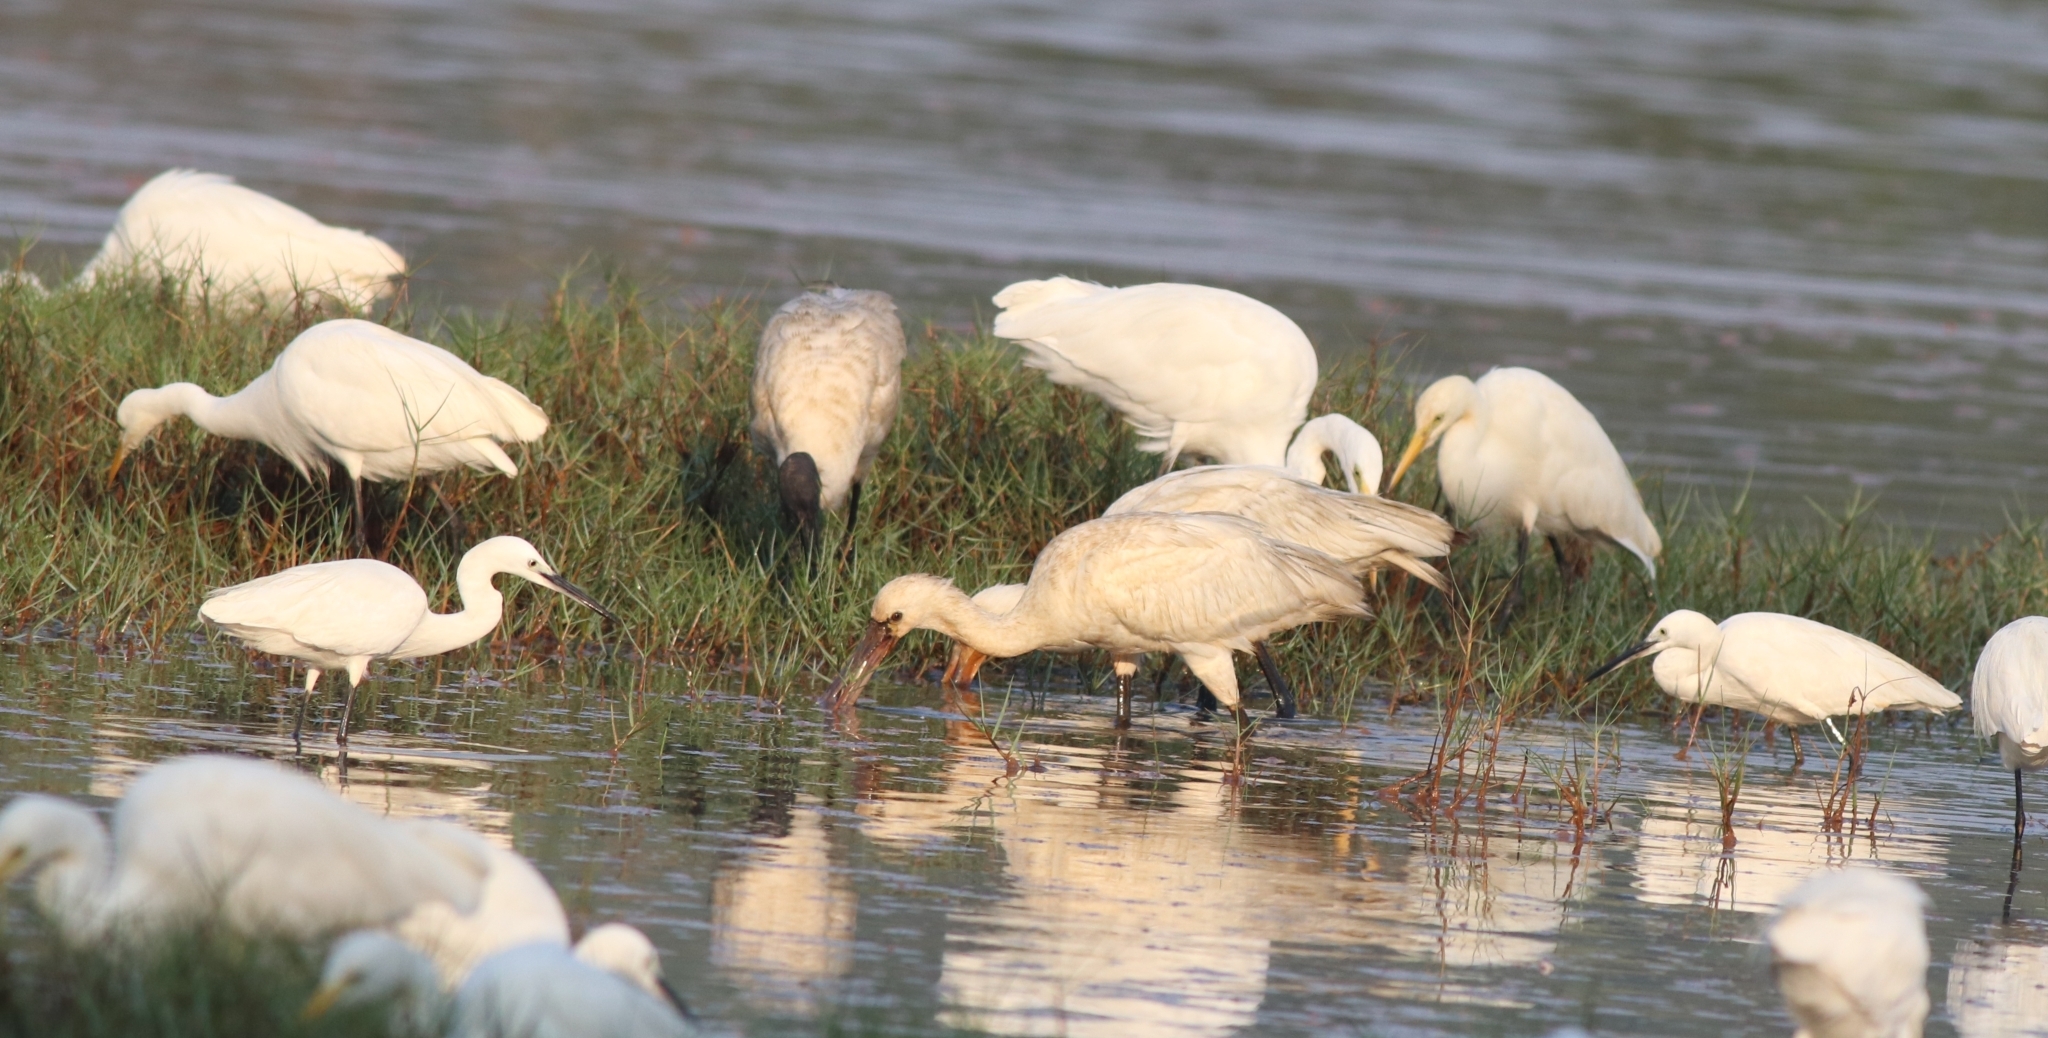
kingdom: Animalia
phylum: Chordata
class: Aves
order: Pelecaniformes
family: Ardeidae
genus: Egretta
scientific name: Egretta garzetta
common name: Little egret
